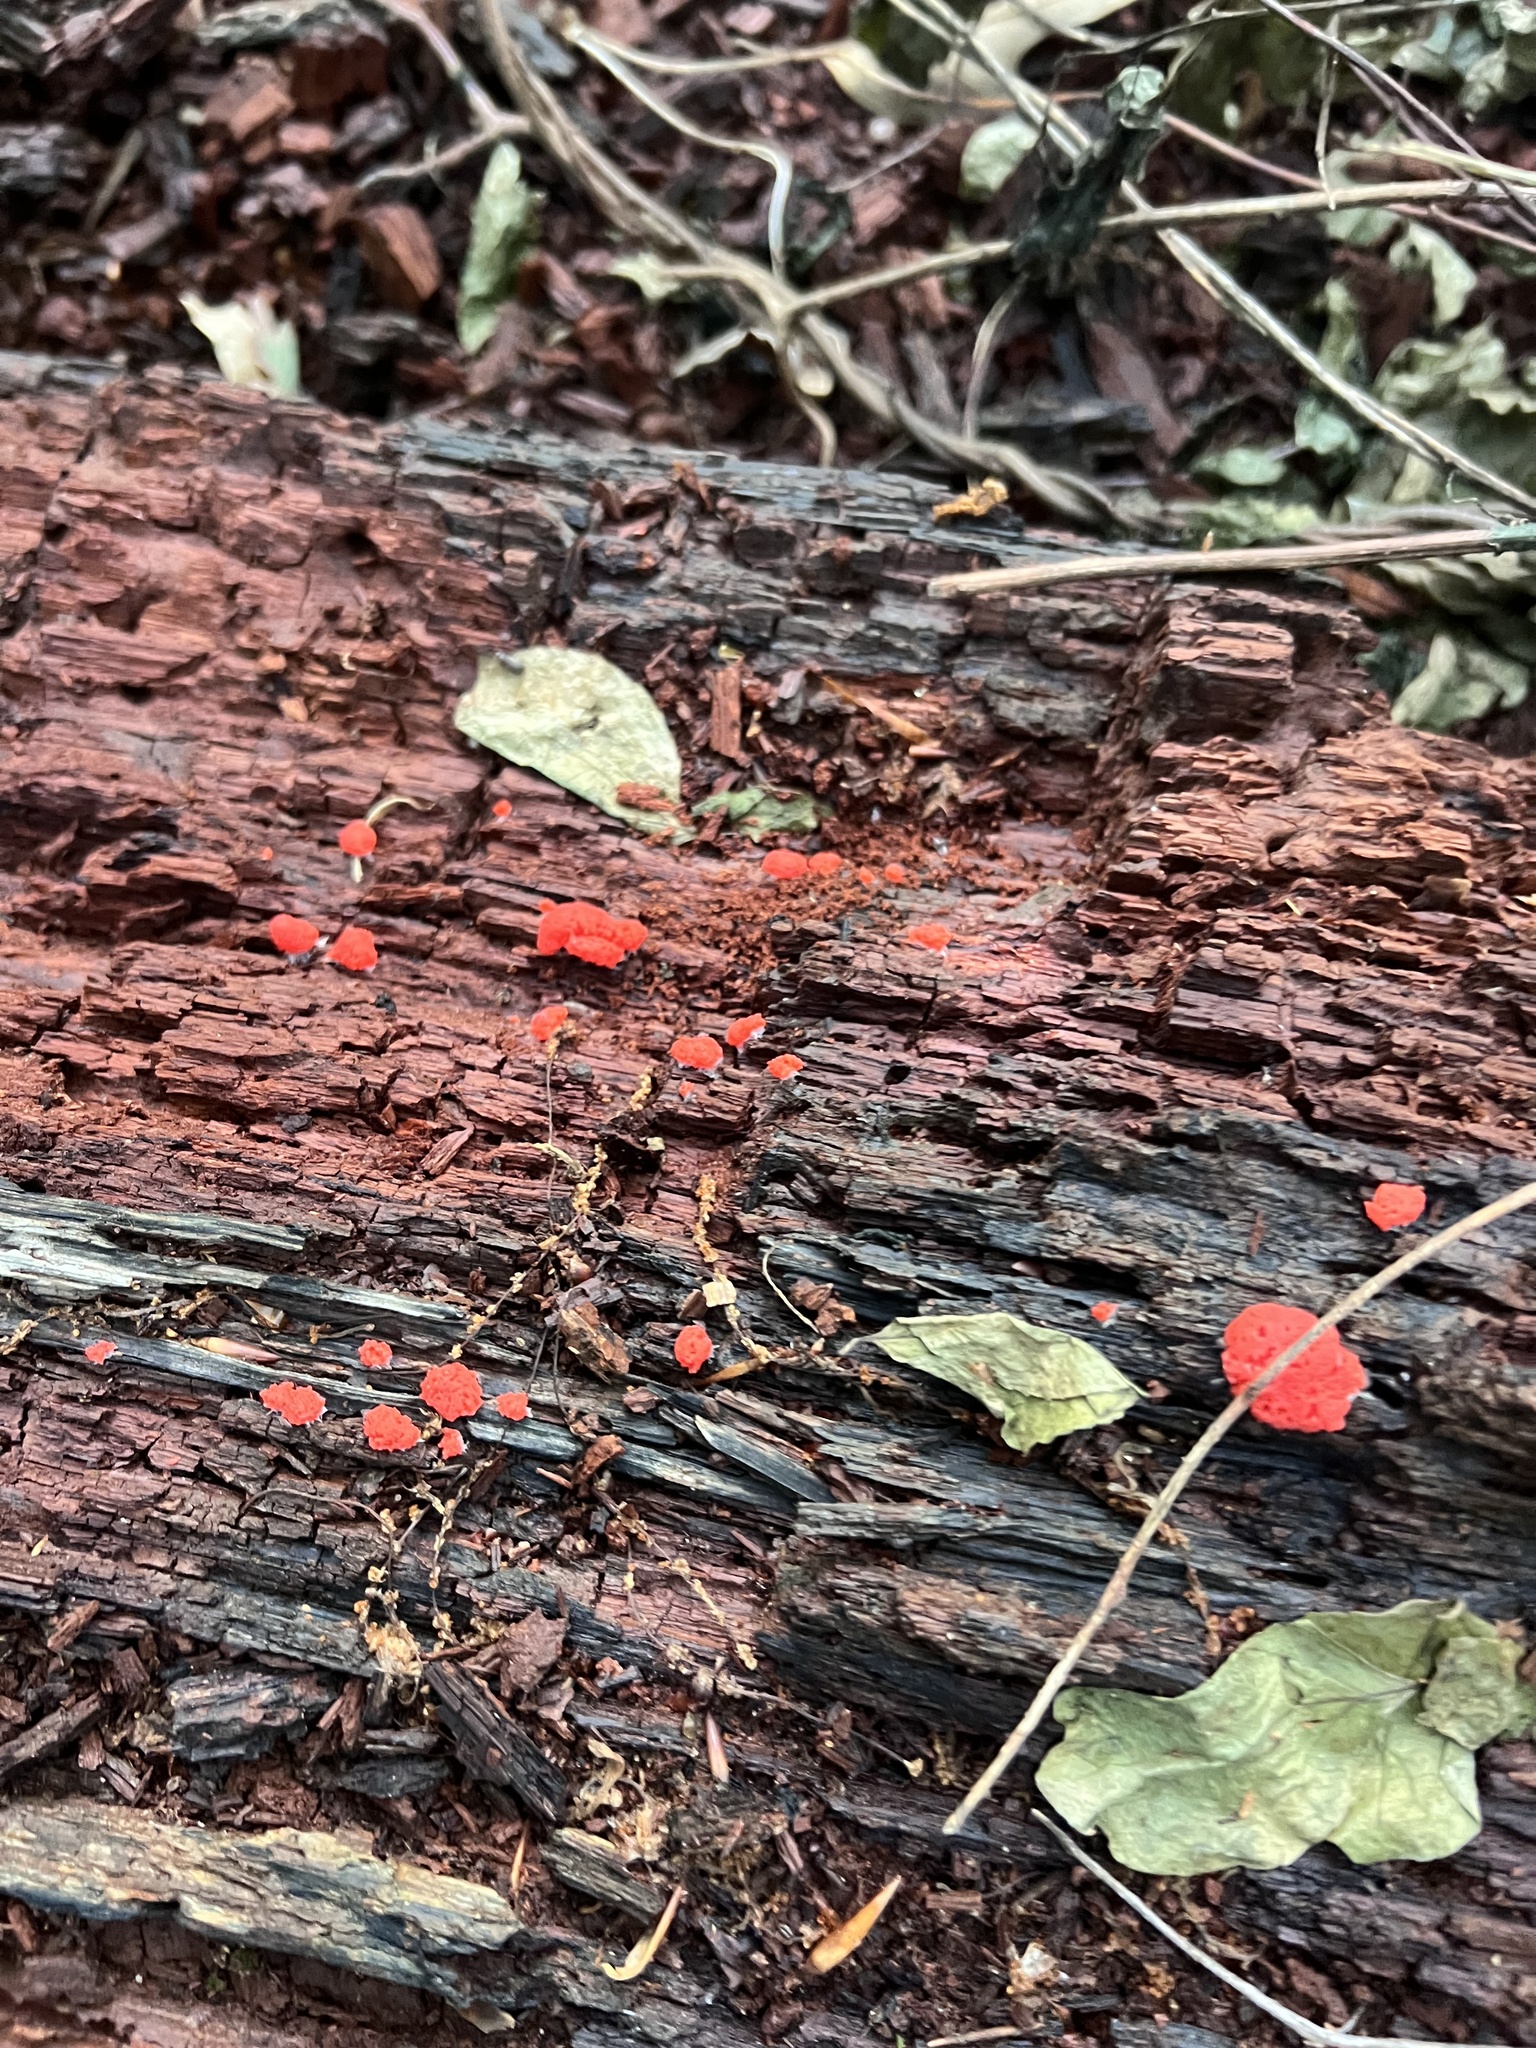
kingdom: Protozoa
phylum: Mycetozoa
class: Myxomycetes
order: Cribrariales
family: Tubiferaceae
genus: Tubifera
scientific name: Tubifera ferruginosa
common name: Red raspberry slime mold
